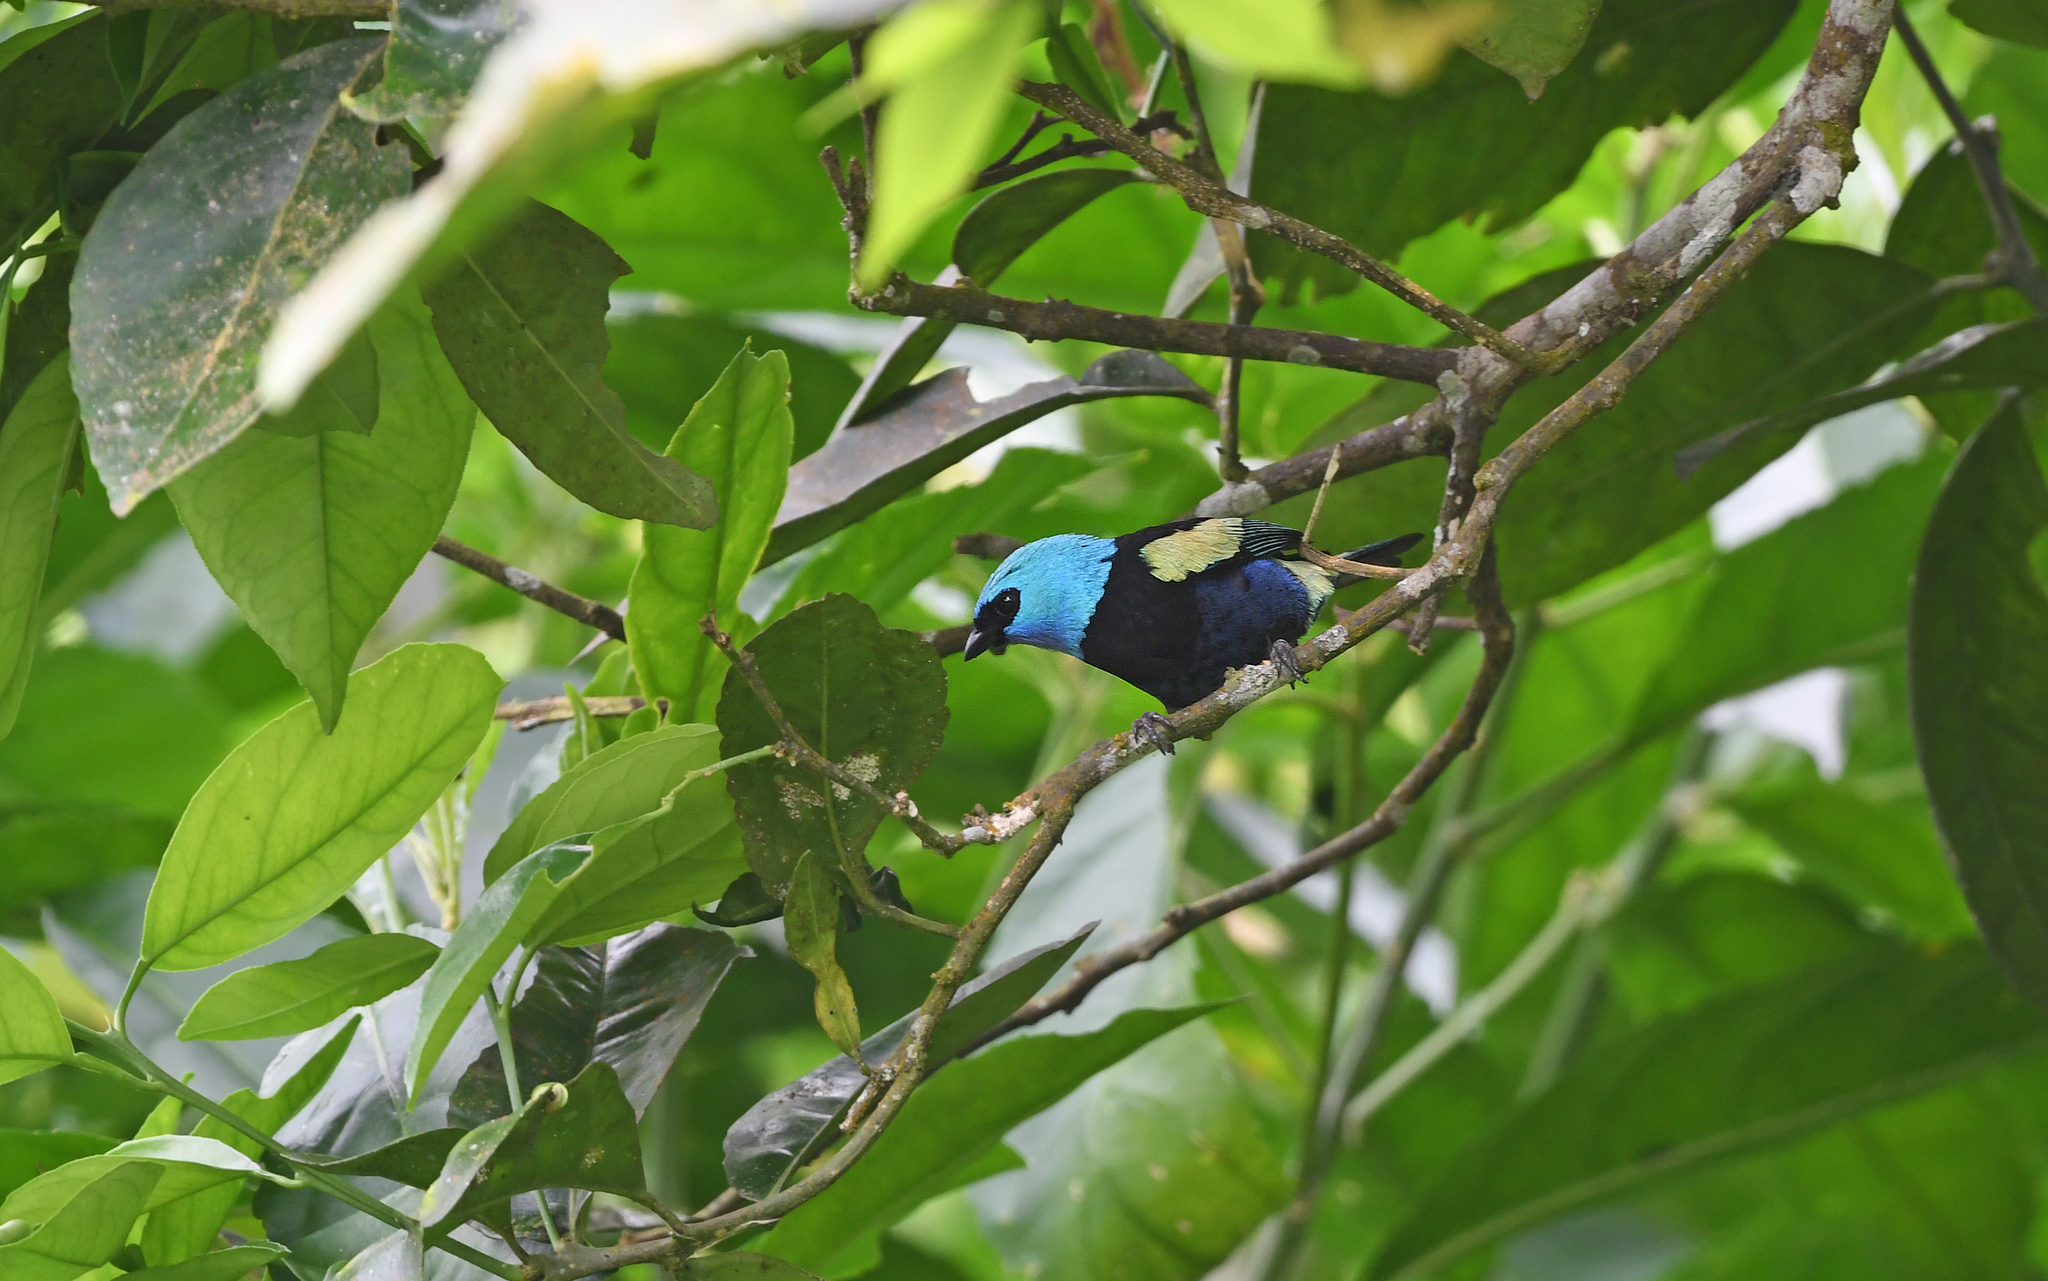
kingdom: Animalia
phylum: Chordata
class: Aves
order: Passeriformes
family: Thraupidae
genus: Stilpnia
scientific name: Stilpnia cyanicollis
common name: Blue-necked tanager
